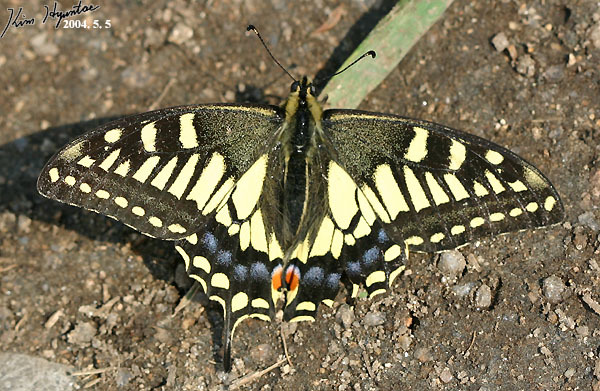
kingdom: Animalia
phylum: Arthropoda
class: Insecta
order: Lepidoptera
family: Papilionidae
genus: Papilio
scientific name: Papilio machaon
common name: Swallowtail
